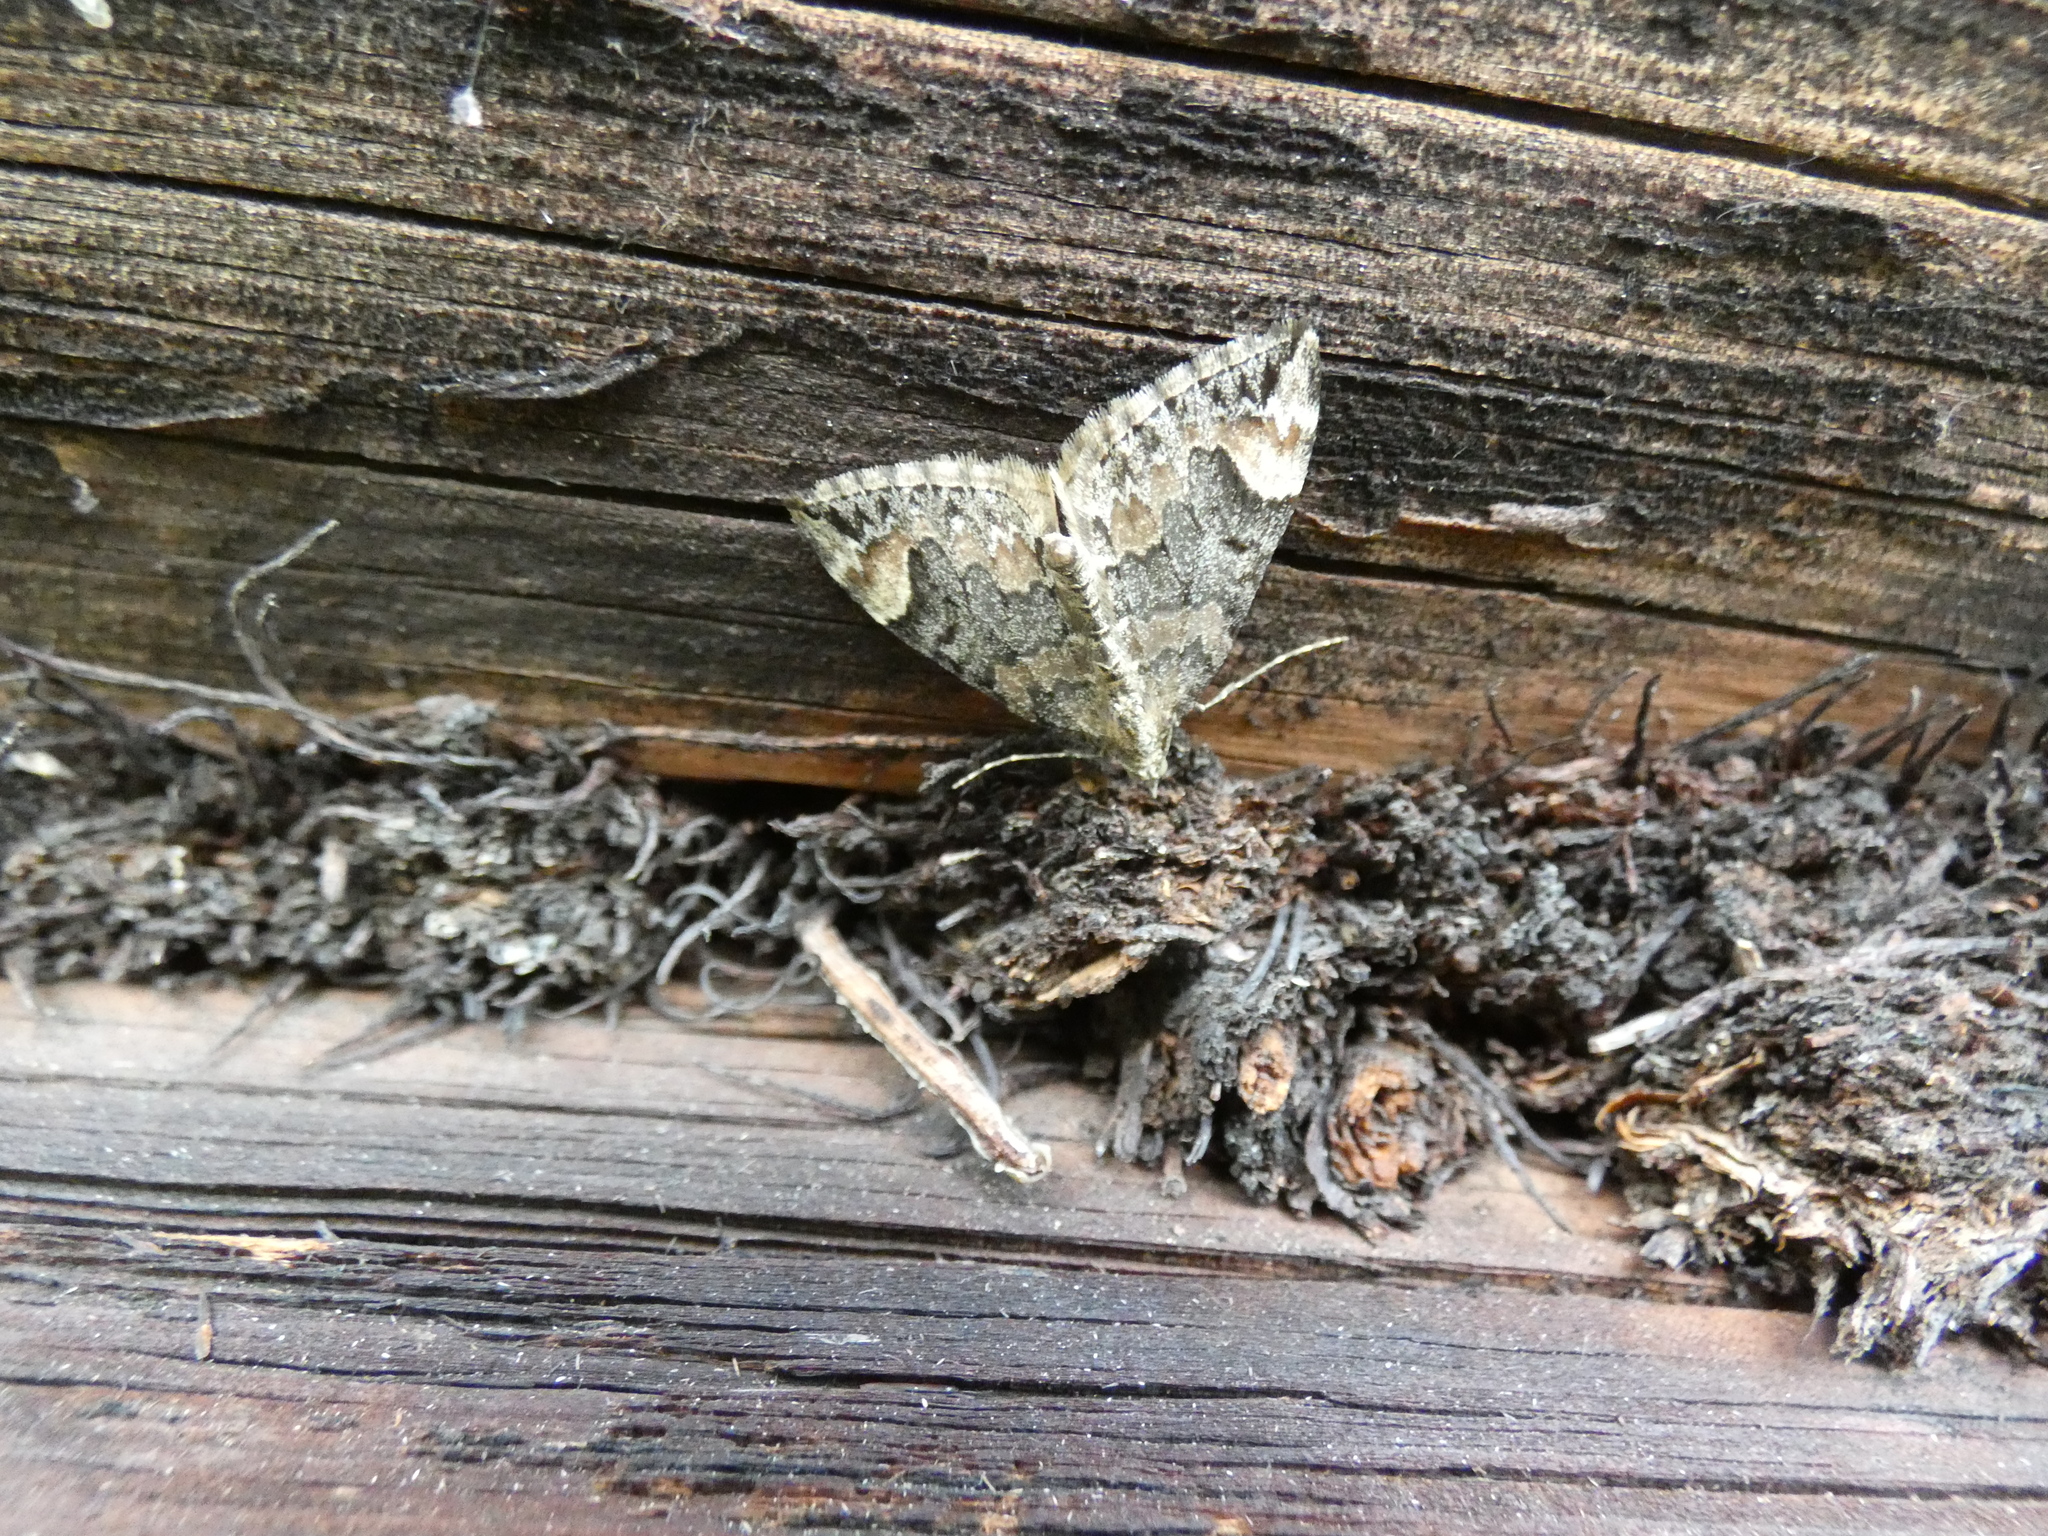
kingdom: Animalia
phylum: Arthropoda
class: Insecta
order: Lepidoptera
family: Geometridae
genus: Dysstroma
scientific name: Dysstroma citrata
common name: Dark marbled carpet
